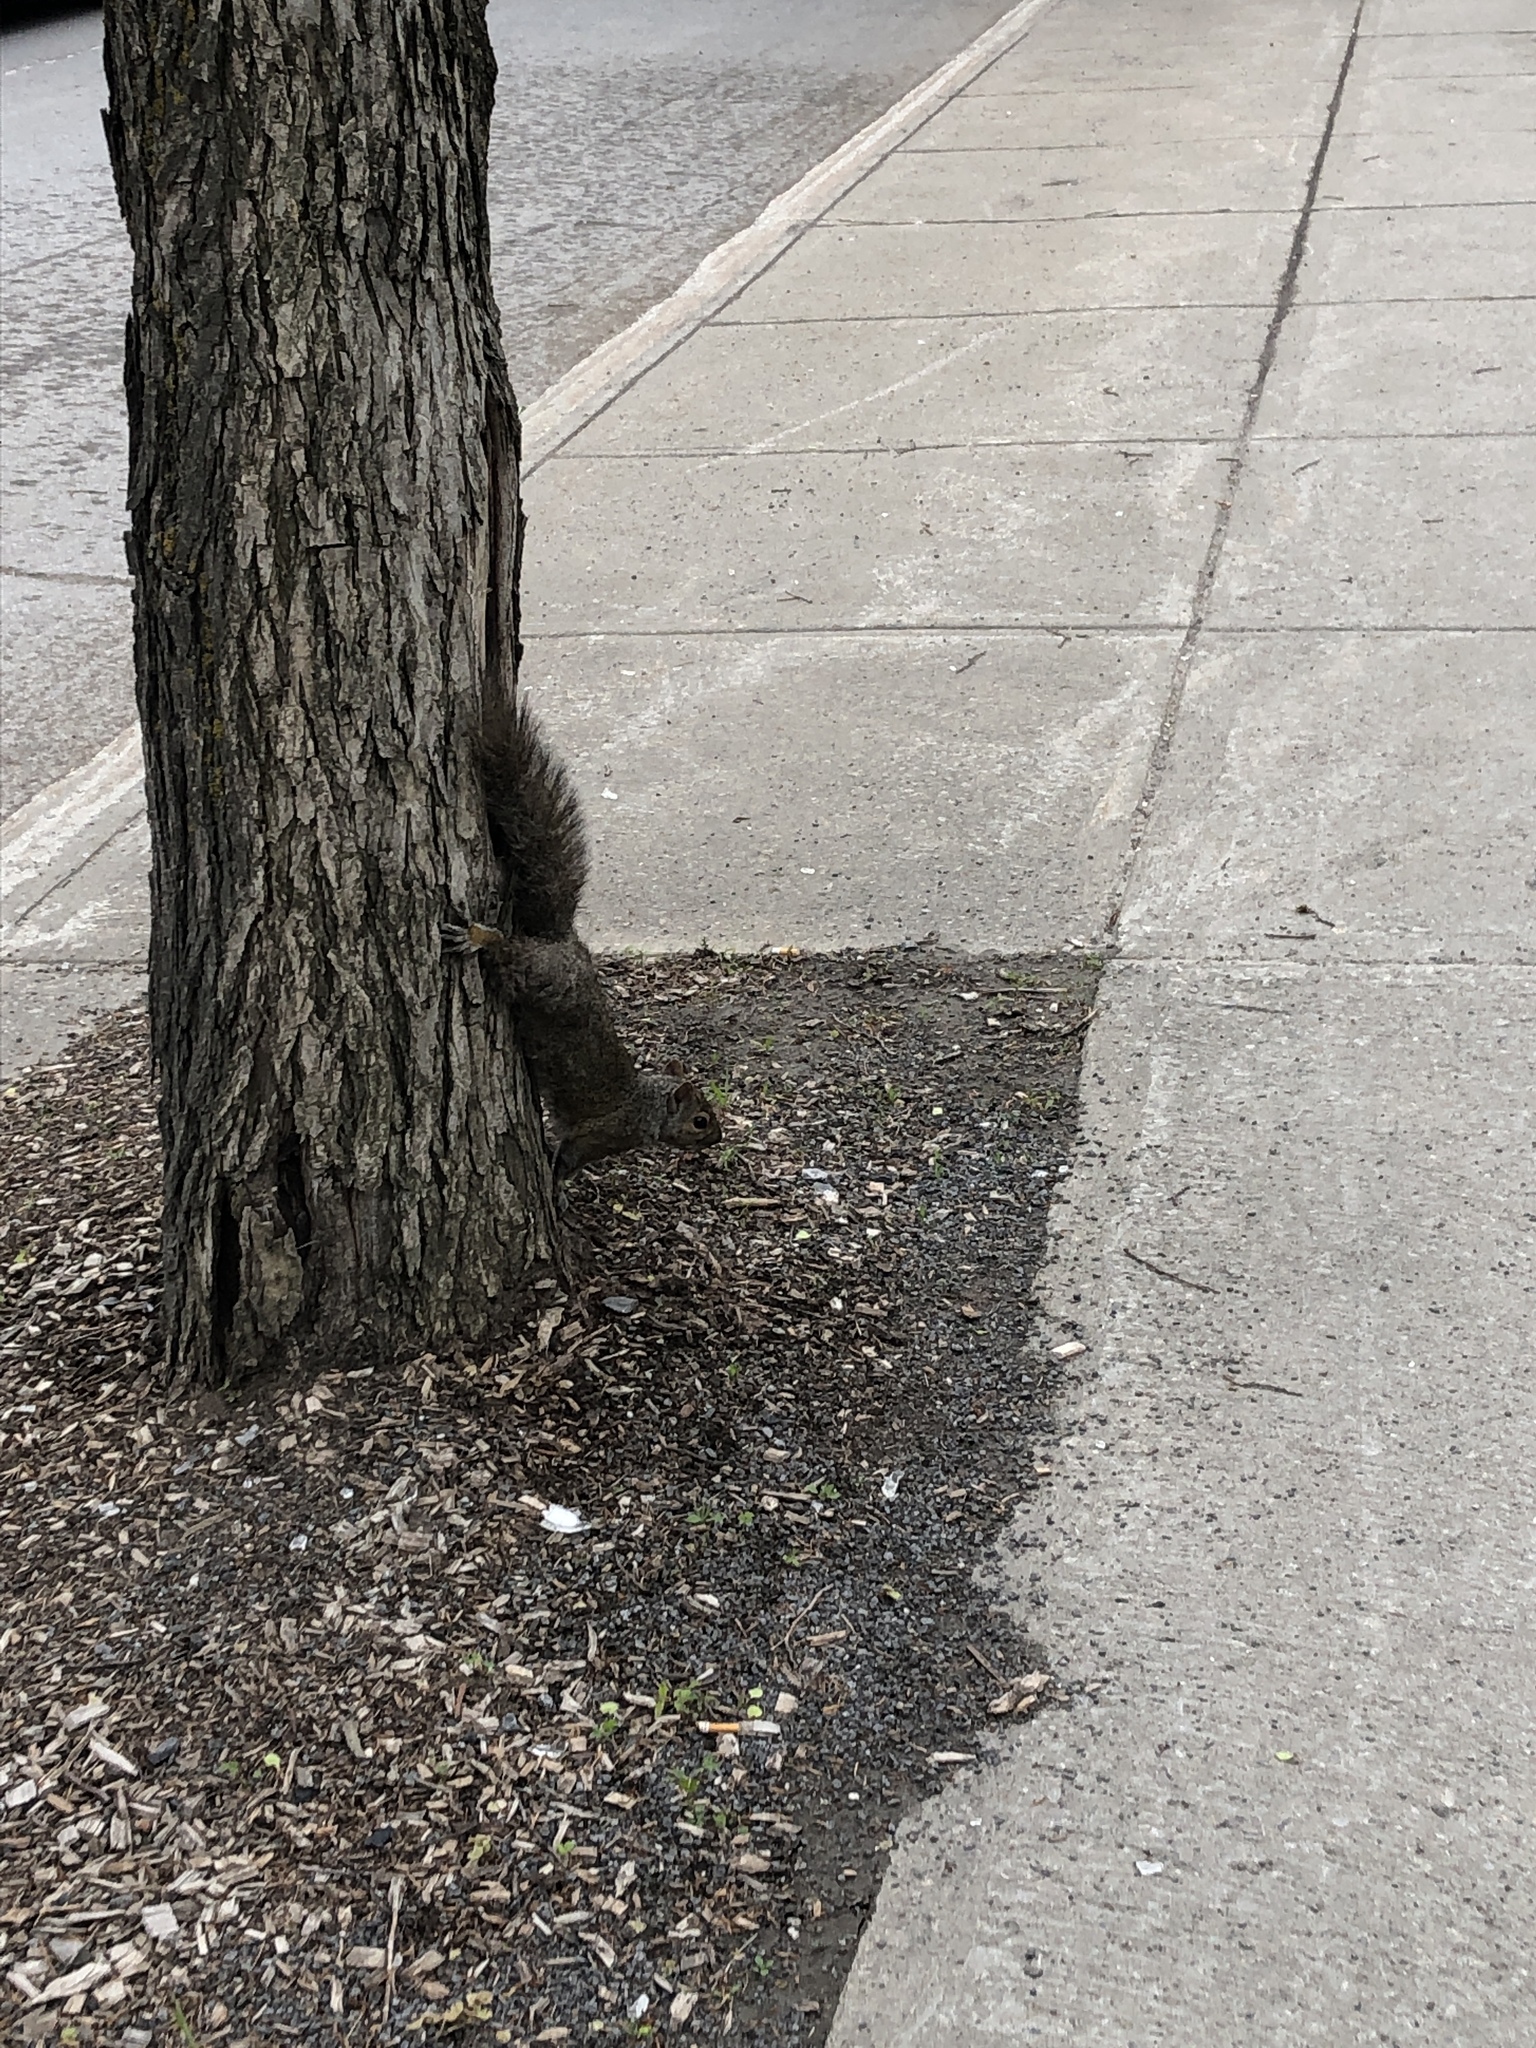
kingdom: Animalia
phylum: Chordata
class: Mammalia
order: Rodentia
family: Sciuridae
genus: Sciurus
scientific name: Sciurus carolinensis
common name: Eastern gray squirrel
